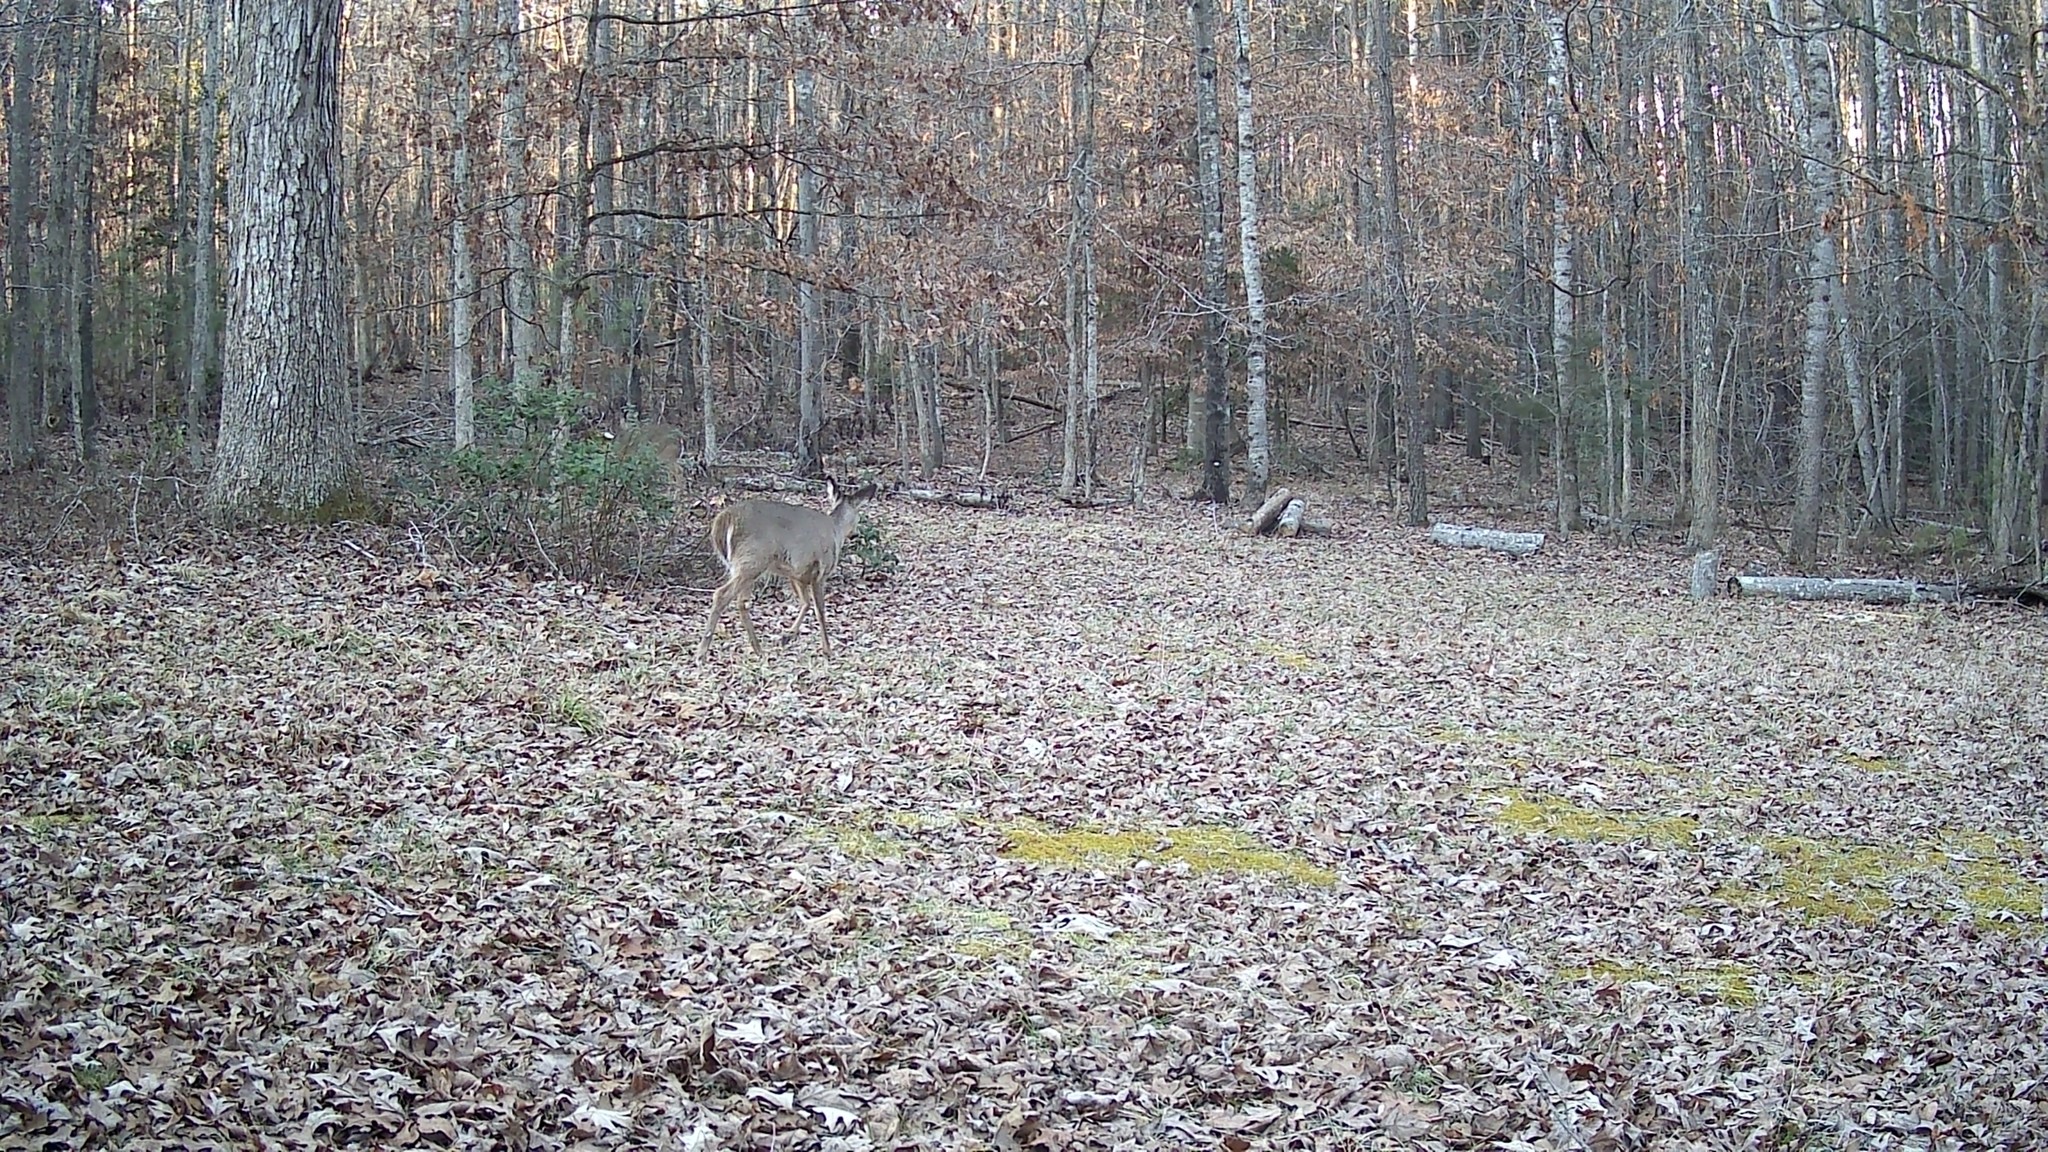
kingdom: Animalia
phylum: Chordata
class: Mammalia
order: Artiodactyla
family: Cervidae
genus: Odocoileus
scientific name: Odocoileus virginianus
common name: White-tailed deer
